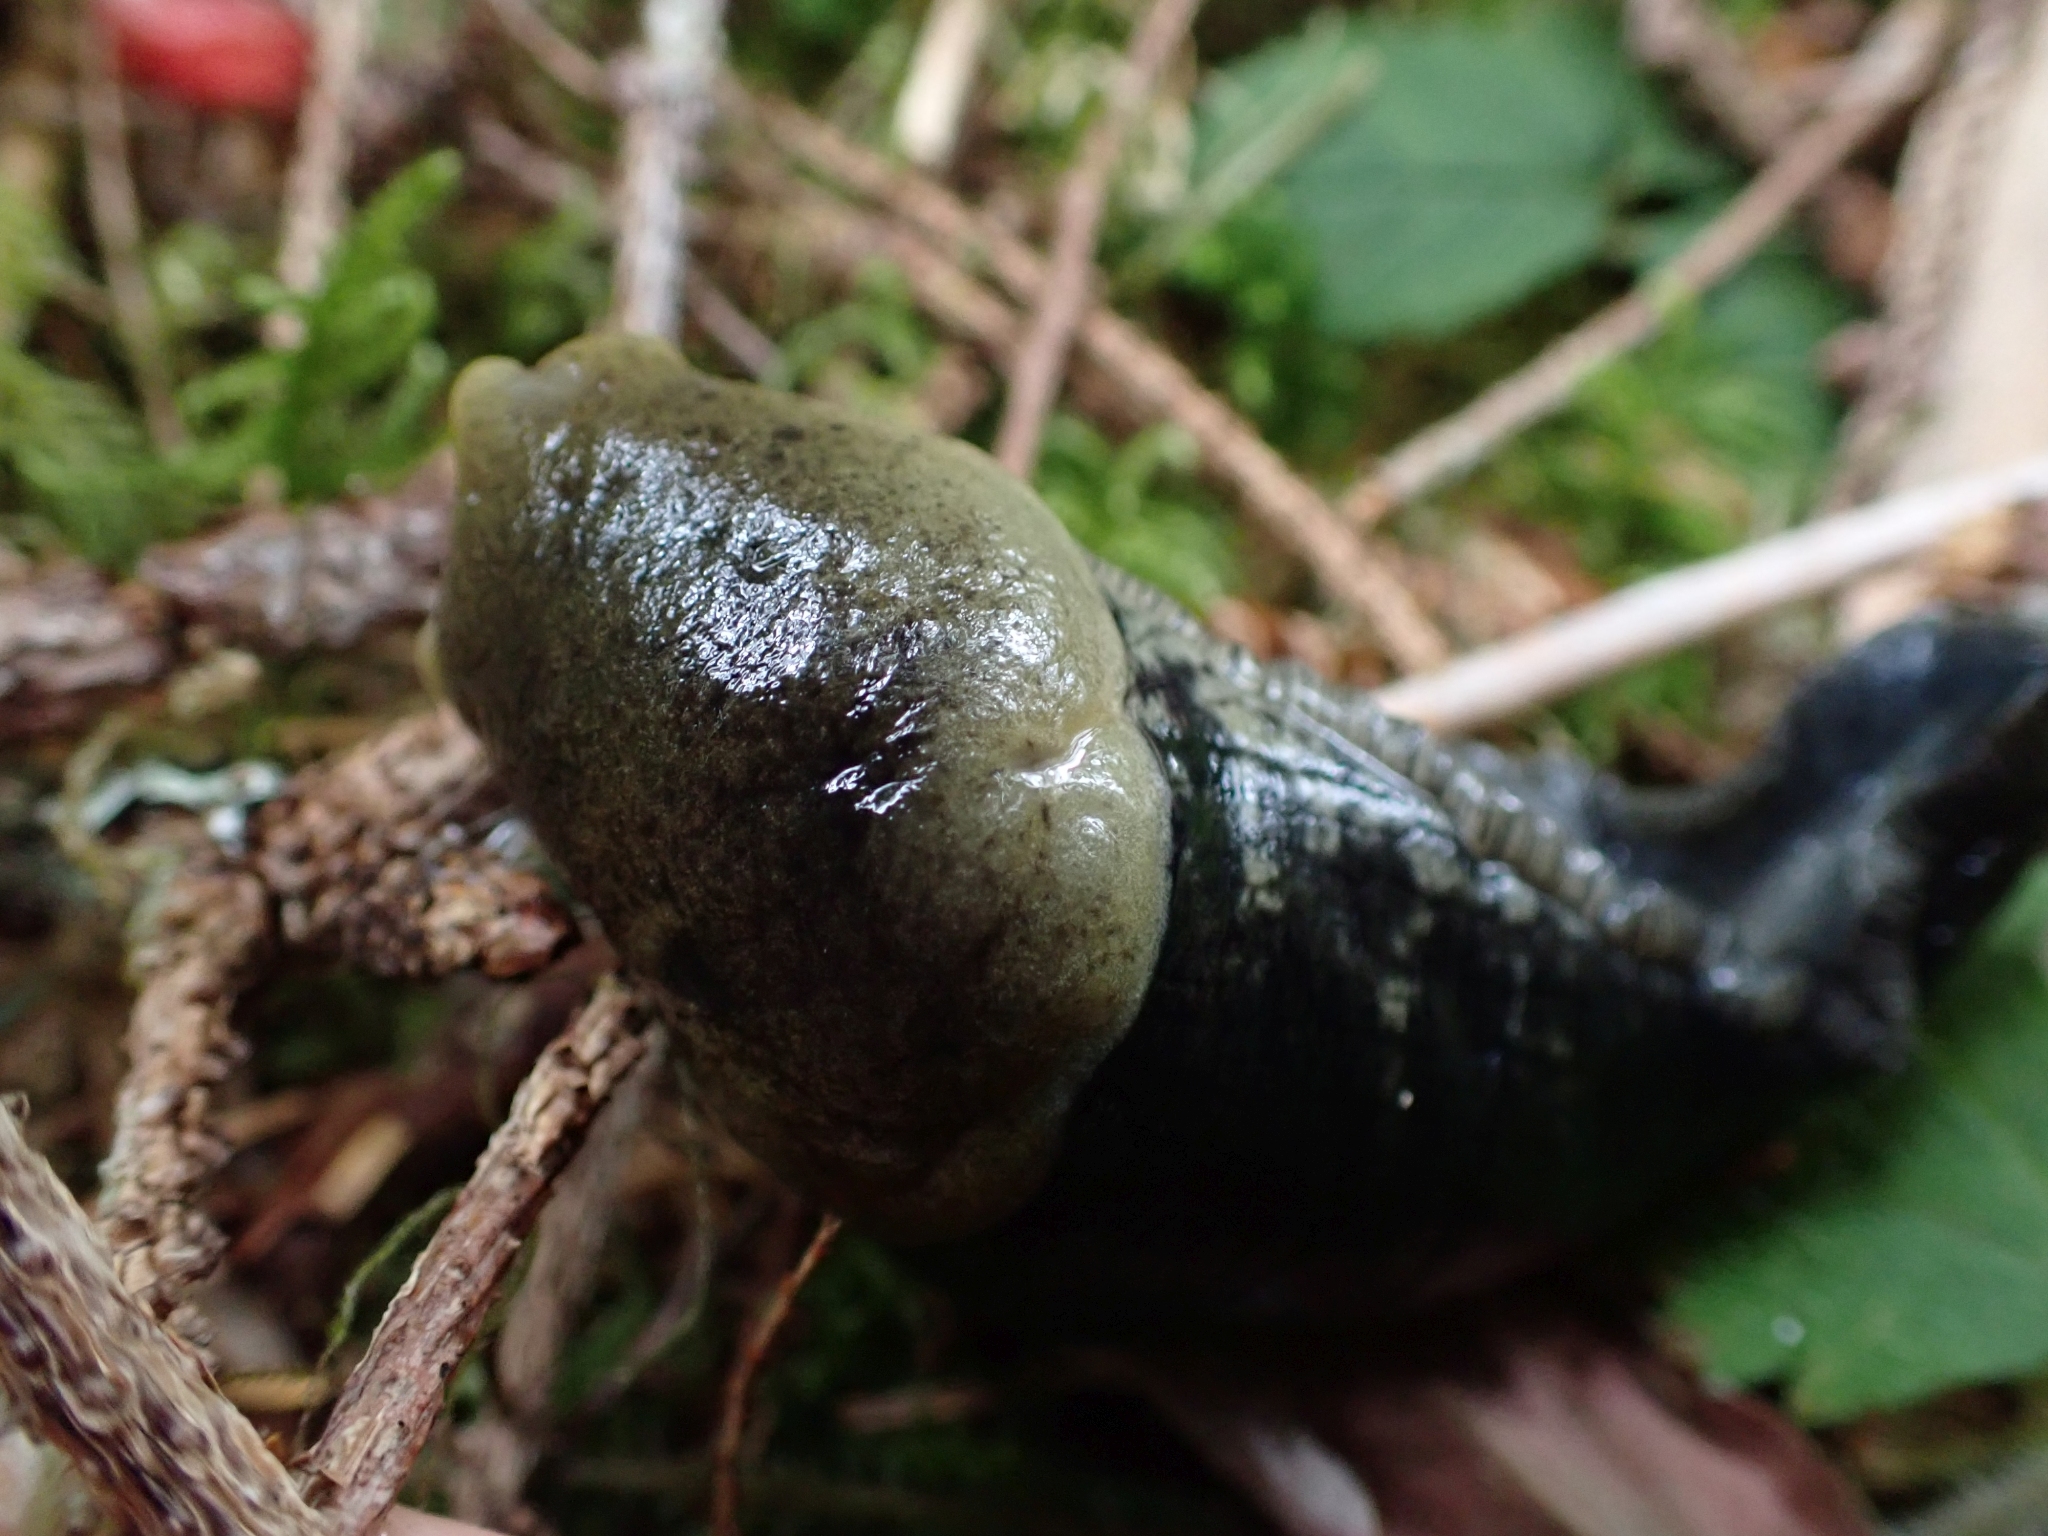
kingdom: Animalia
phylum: Mollusca
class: Gastropoda
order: Stylommatophora
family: Ariolimacidae
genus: Ariolimax
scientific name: Ariolimax columbianus
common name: Pacific banana slug
